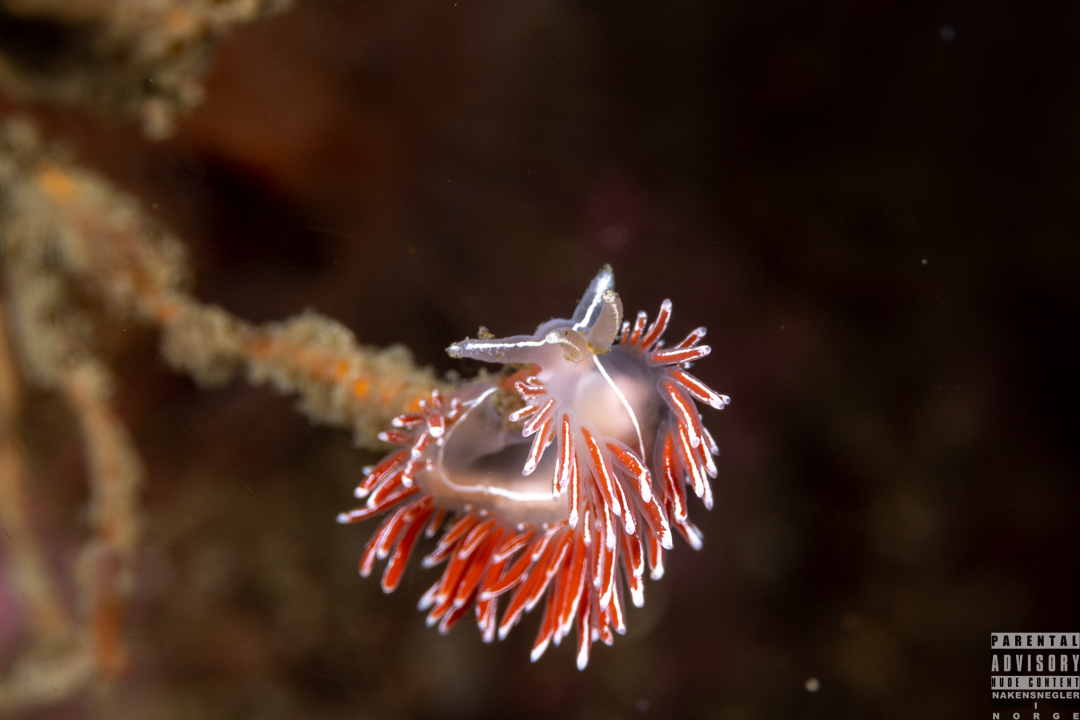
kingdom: Animalia
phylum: Mollusca
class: Gastropoda
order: Nudibranchia
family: Coryphellidae
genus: Coryphella
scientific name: Coryphella lineata
